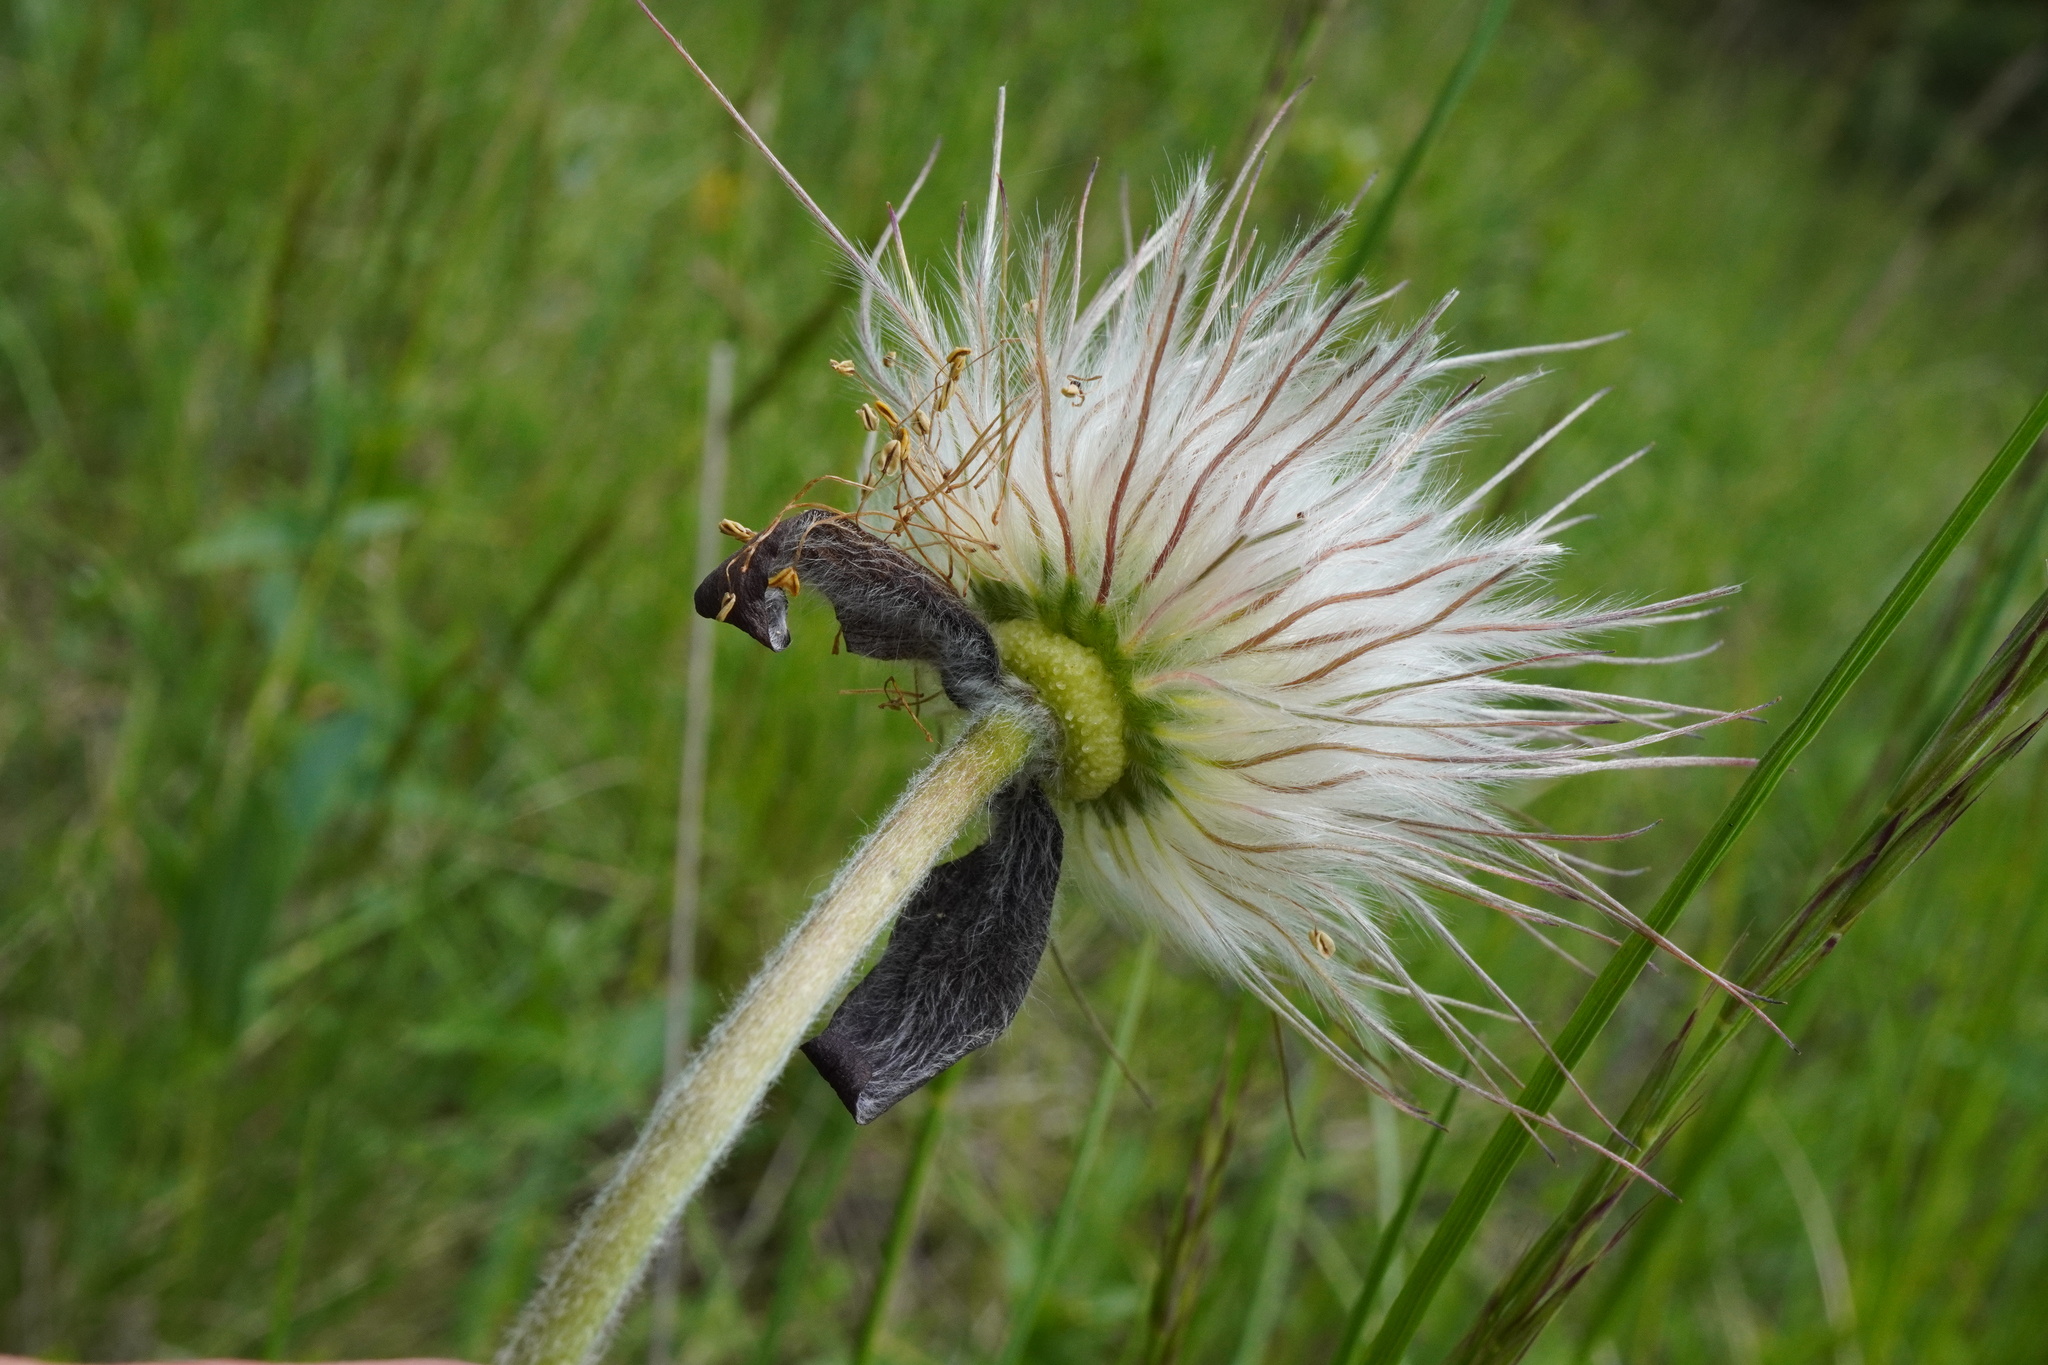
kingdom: Plantae
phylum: Tracheophyta
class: Magnoliopsida
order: Ranunculales
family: Ranunculaceae
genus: Pulsatilla
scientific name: Pulsatilla pratensis
